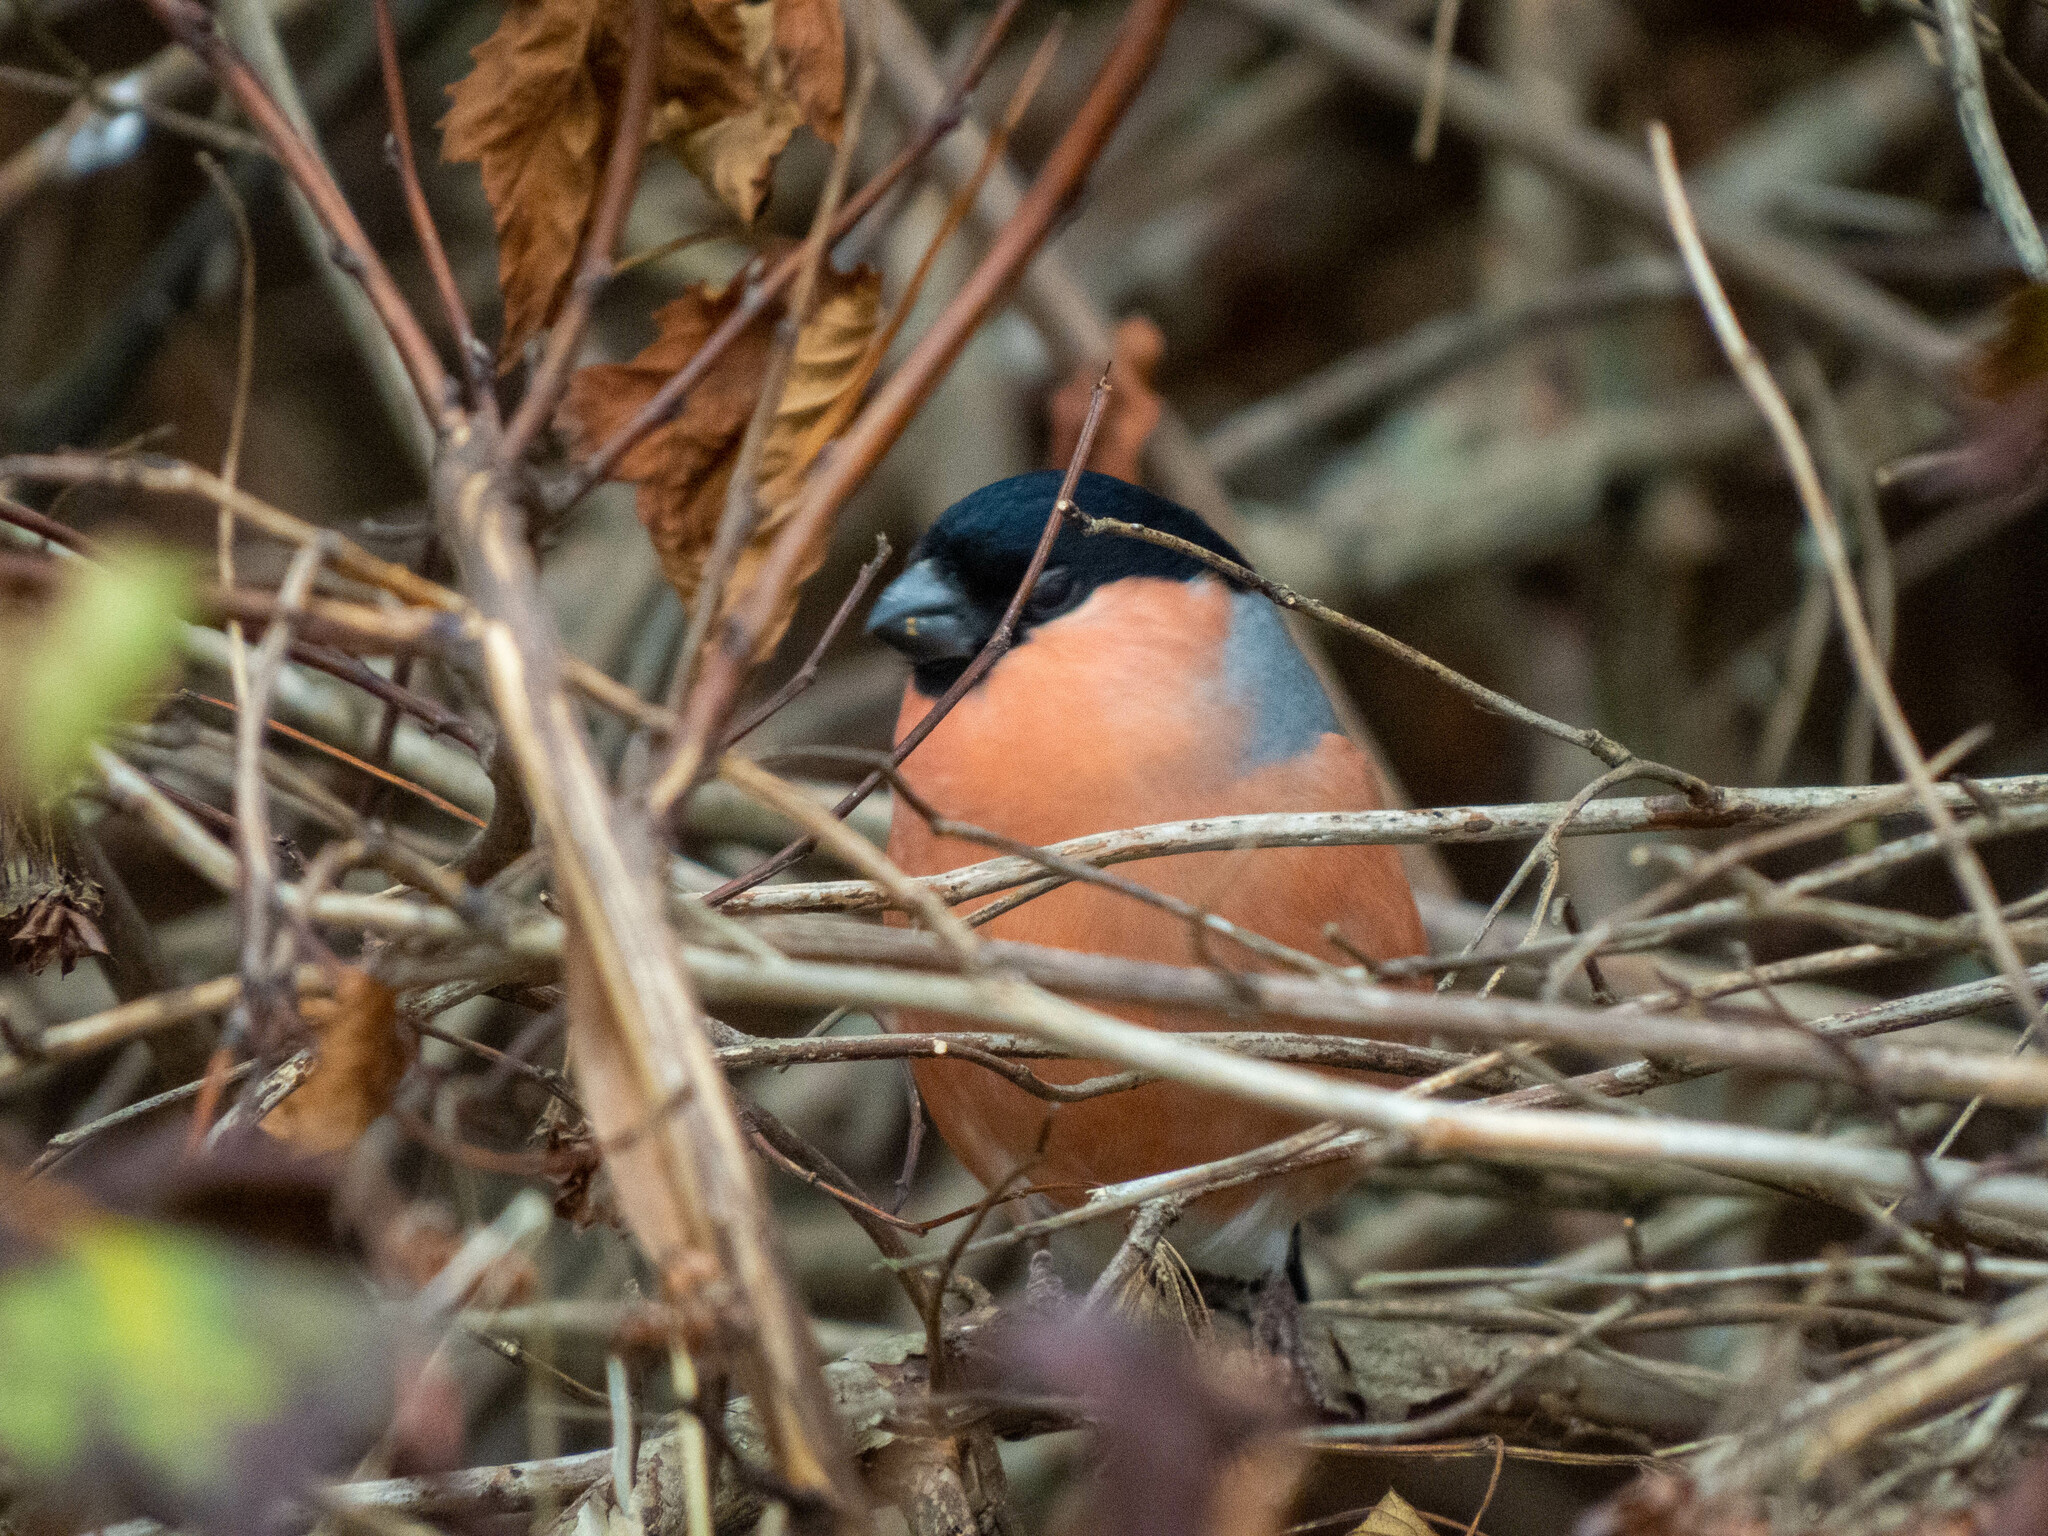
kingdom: Animalia
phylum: Chordata
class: Aves
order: Passeriformes
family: Fringillidae
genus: Pyrrhula
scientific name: Pyrrhula pyrrhula
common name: Eurasian bullfinch
